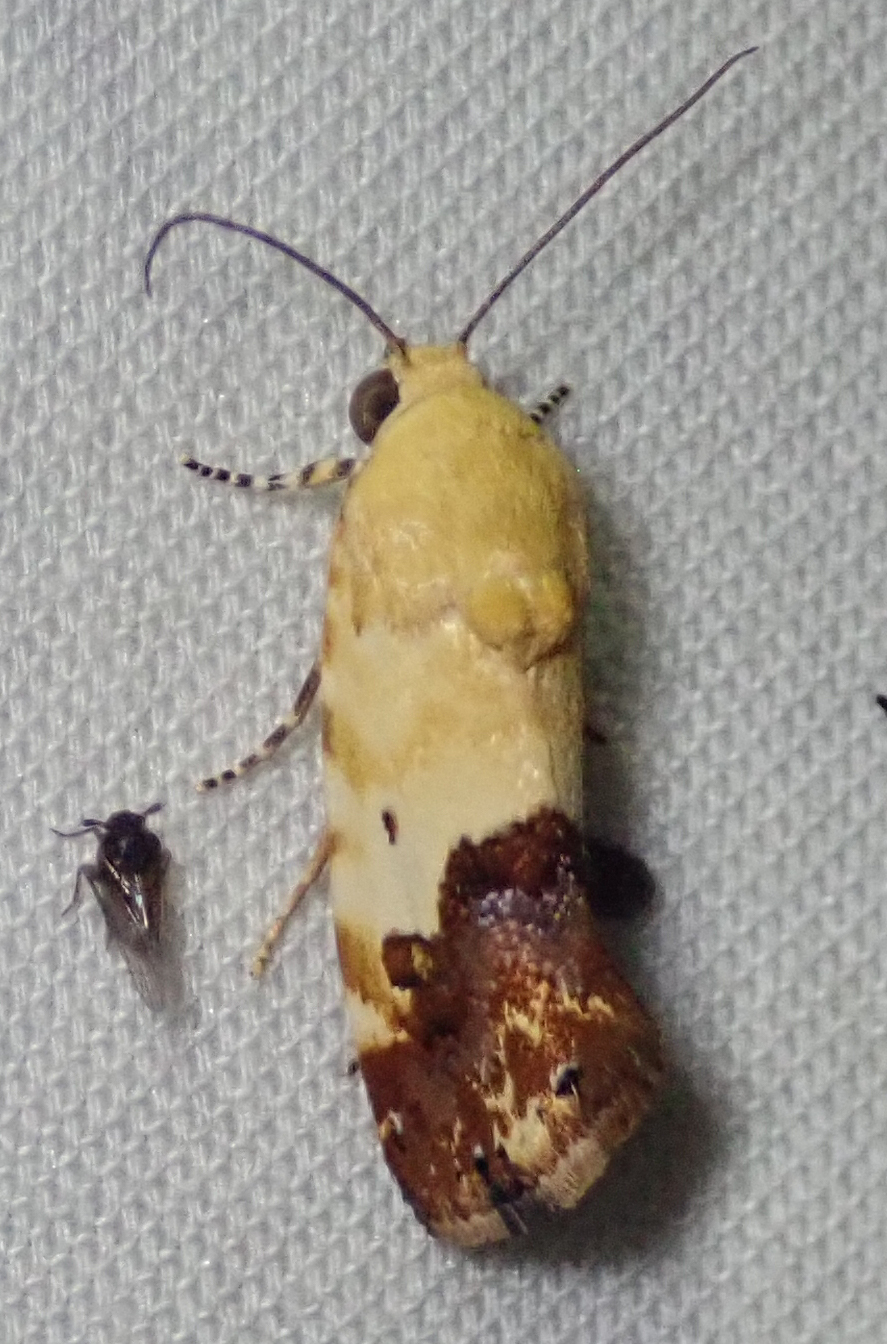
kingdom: Animalia
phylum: Arthropoda
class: Insecta
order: Lepidoptera
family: Noctuidae
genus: Acontia
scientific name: Acontia zelleri
